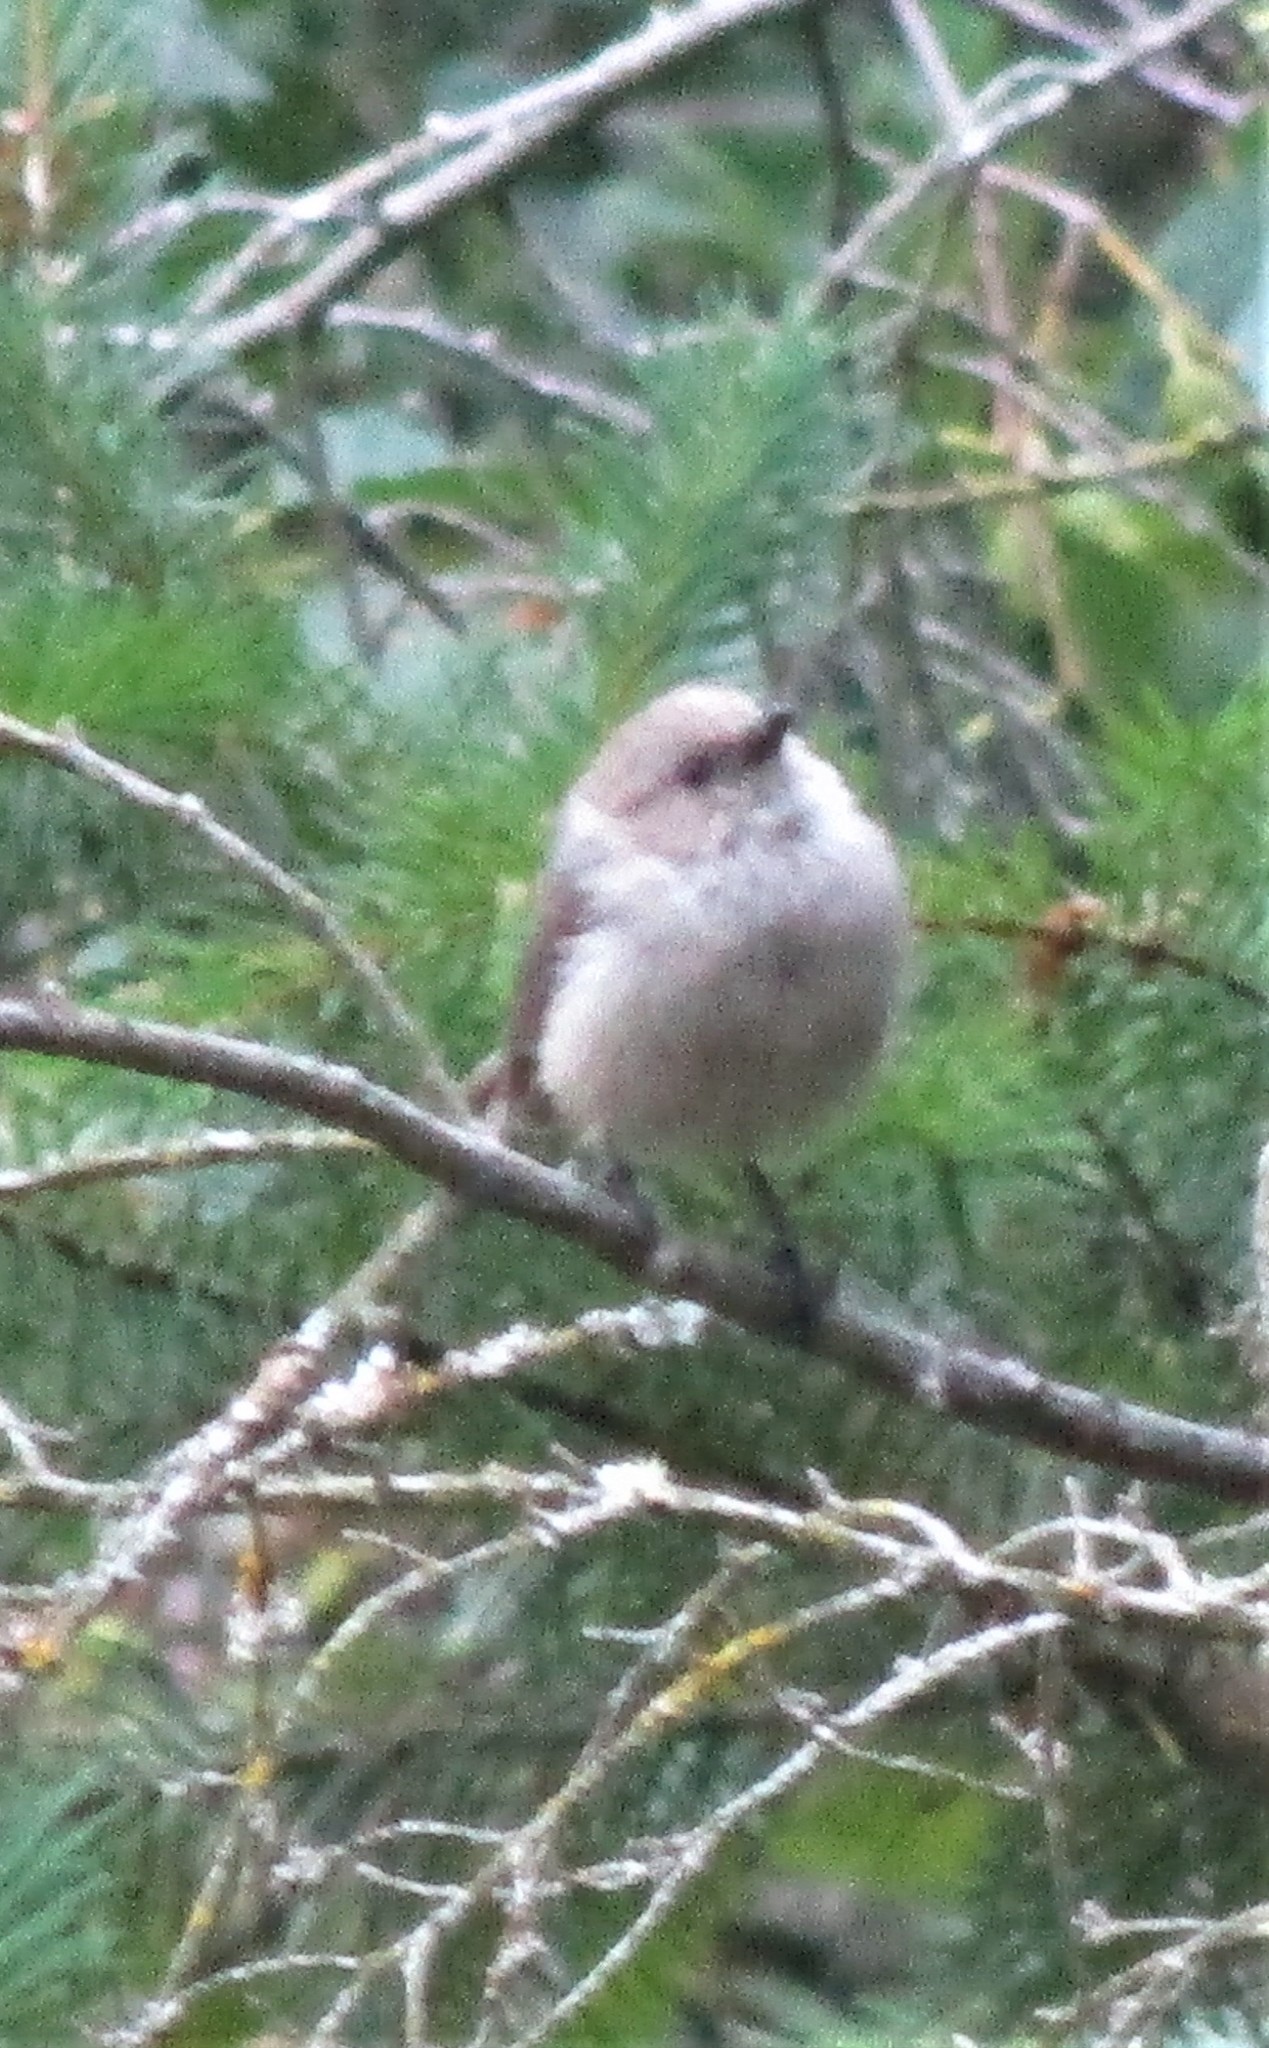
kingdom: Animalia
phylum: Chordata
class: Aves
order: Passeriformes
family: Aegithalidae
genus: Psaltriparus
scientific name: Psaltriparus minimus
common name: American bushtit
